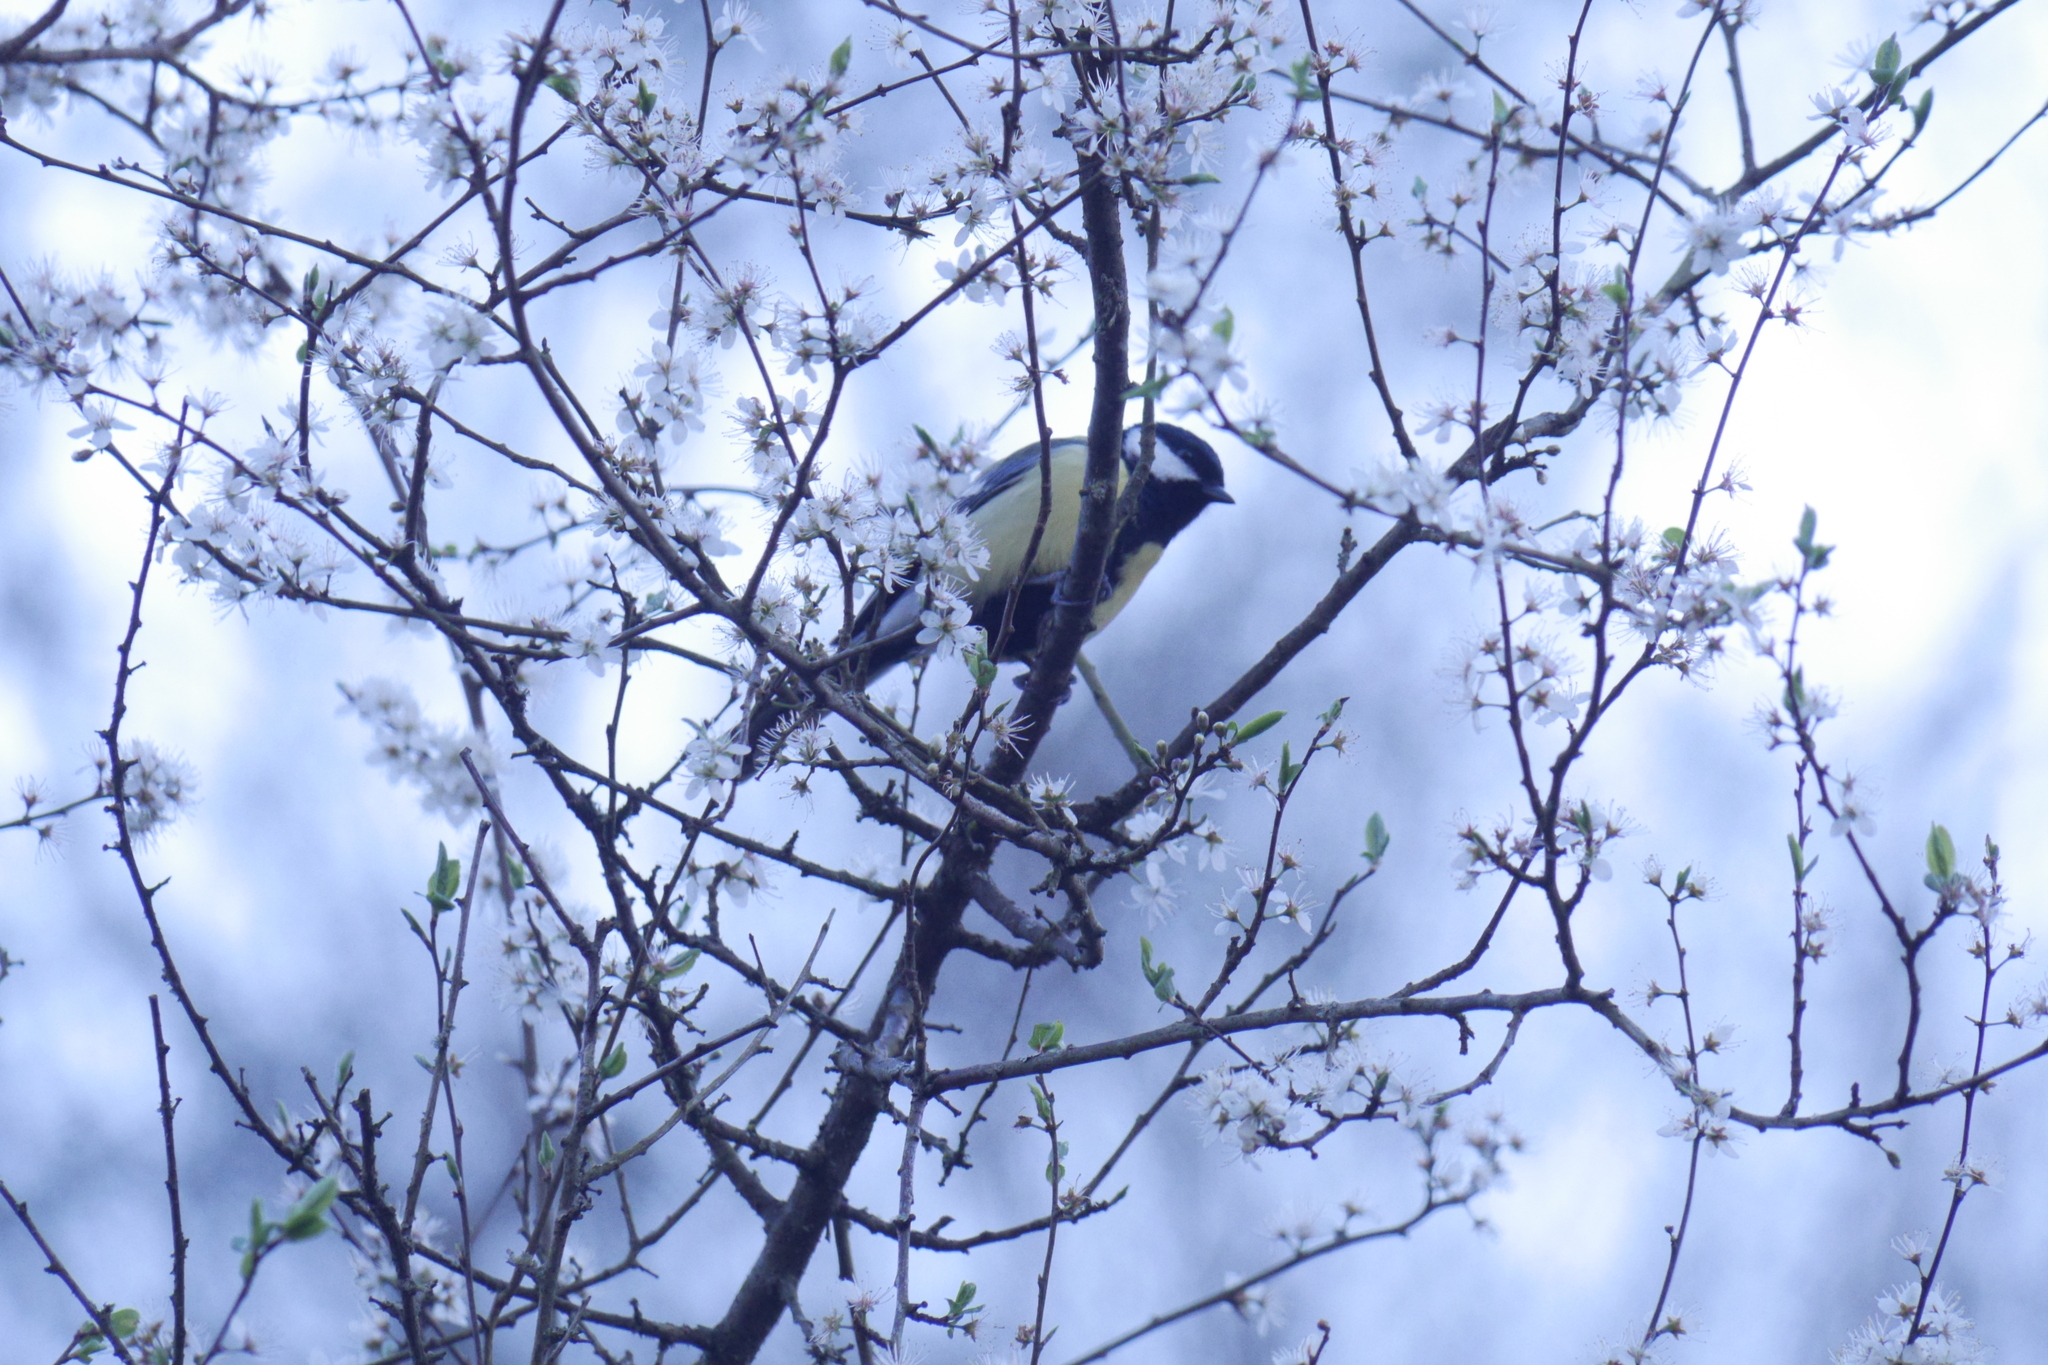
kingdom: Animalia
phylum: Chordata
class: Aves
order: Passeriformes
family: Paridae
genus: Parus
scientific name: Parus major
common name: Great tit
